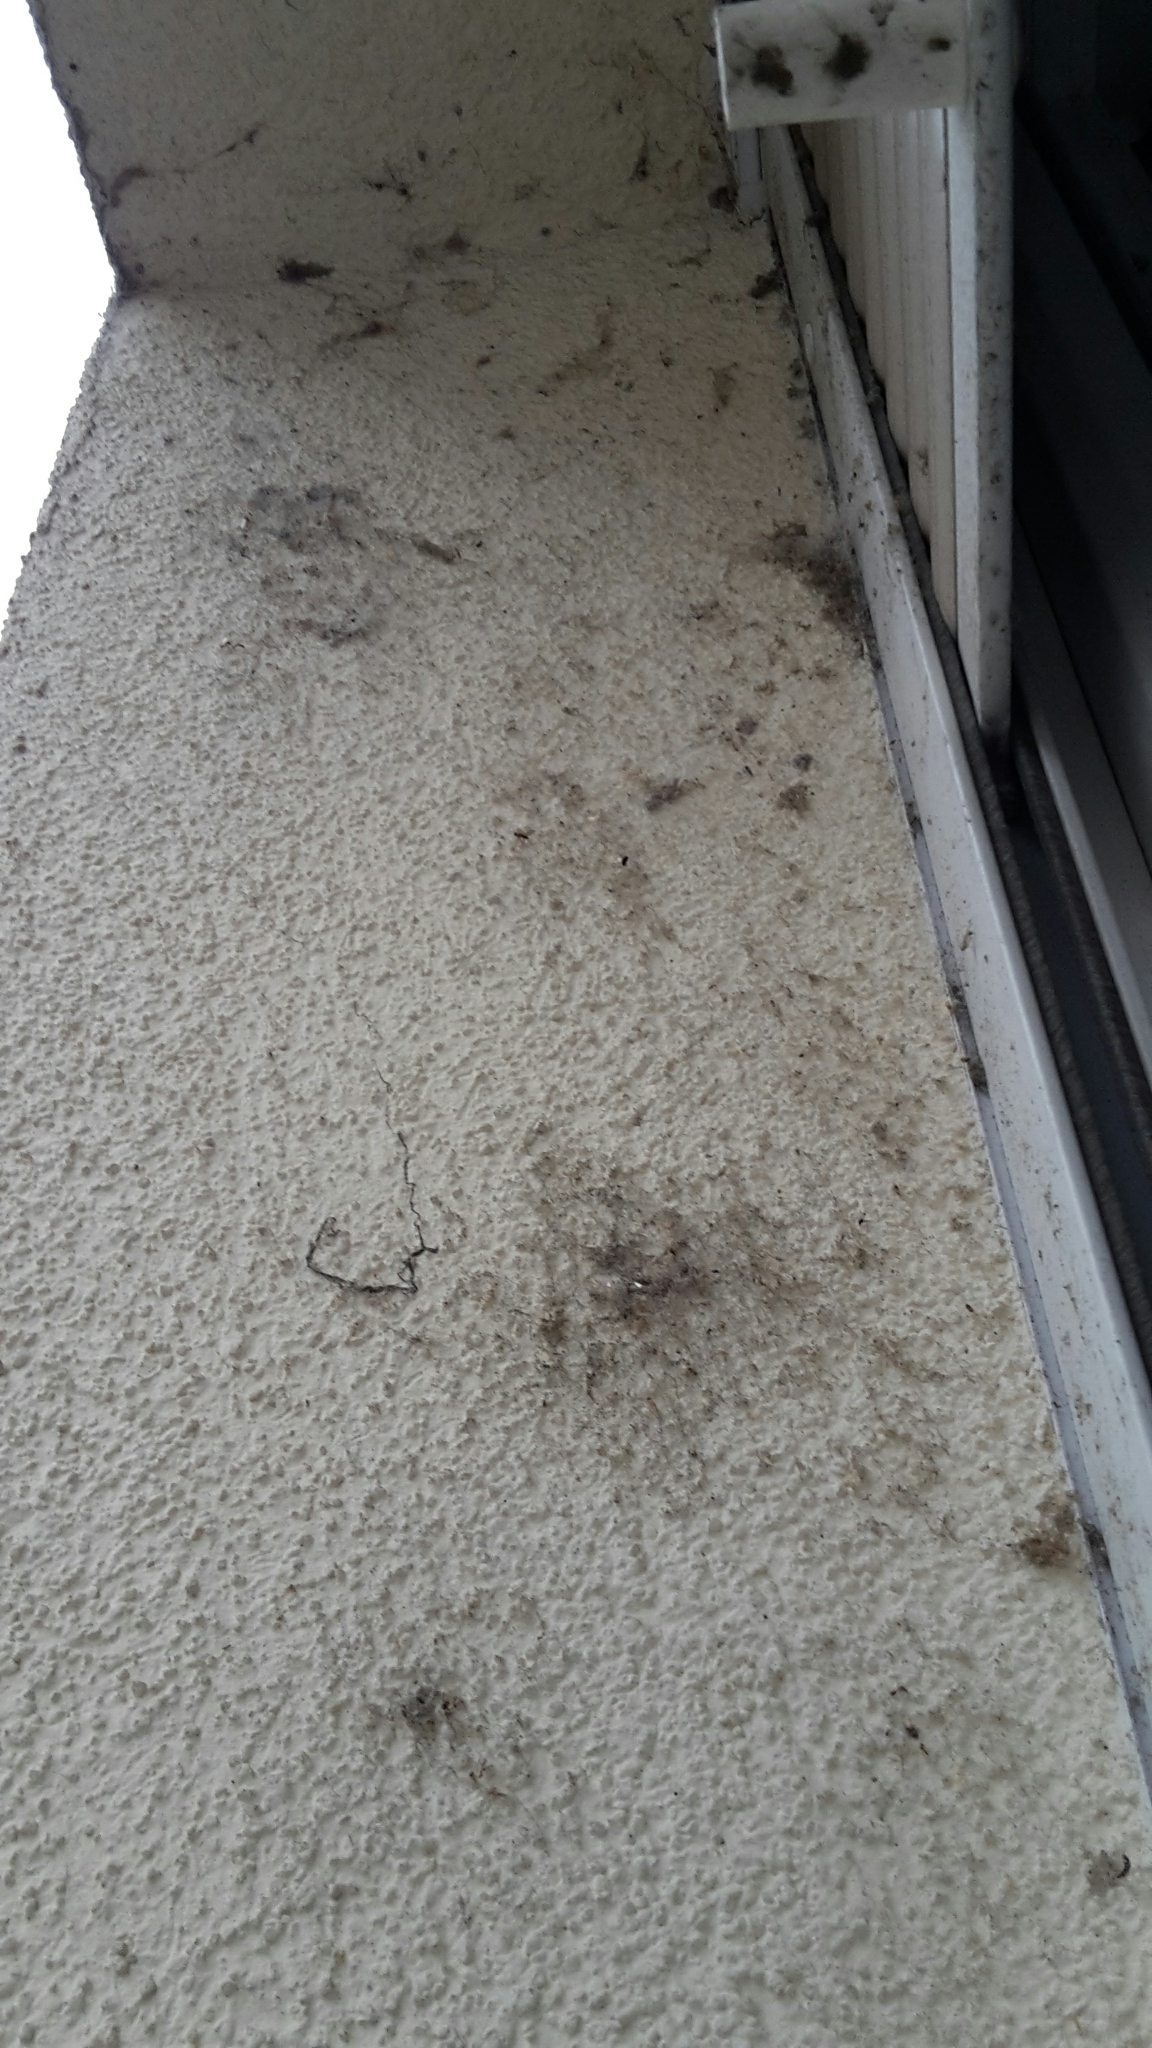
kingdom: Animalia
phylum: Arthropoda
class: Arachnida
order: Araneae
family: Dictynidae
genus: Brigittea
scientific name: Brigittea civica
